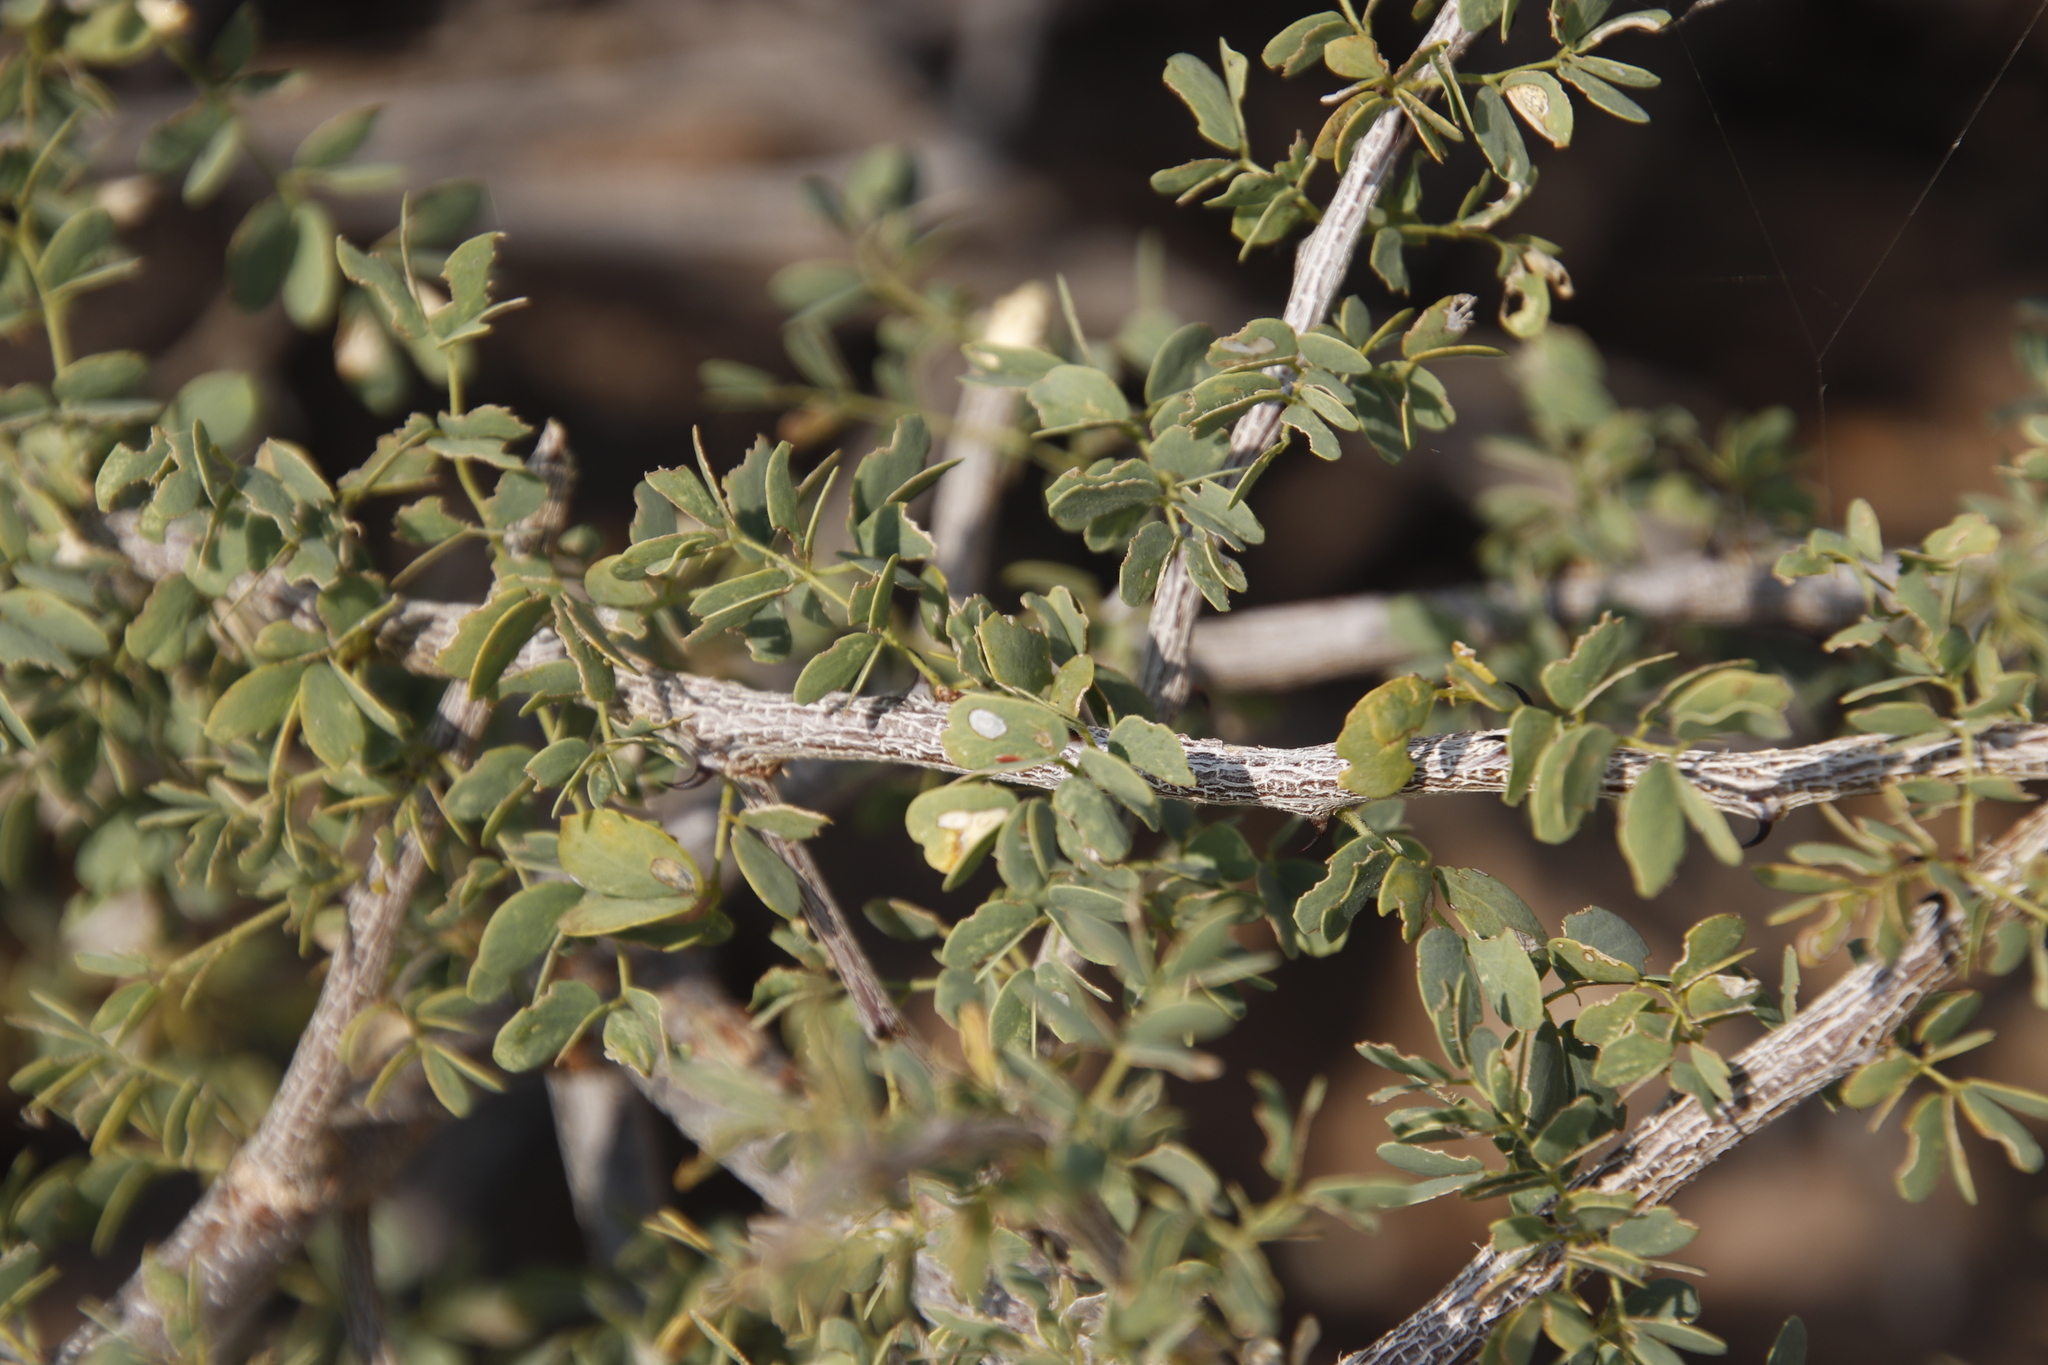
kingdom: Plantae
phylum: Tracheophyta
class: Magnoliopsida
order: Fabales
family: Fabaceae
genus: Senegalia
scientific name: Senegalia mellifera
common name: Hookthorn
